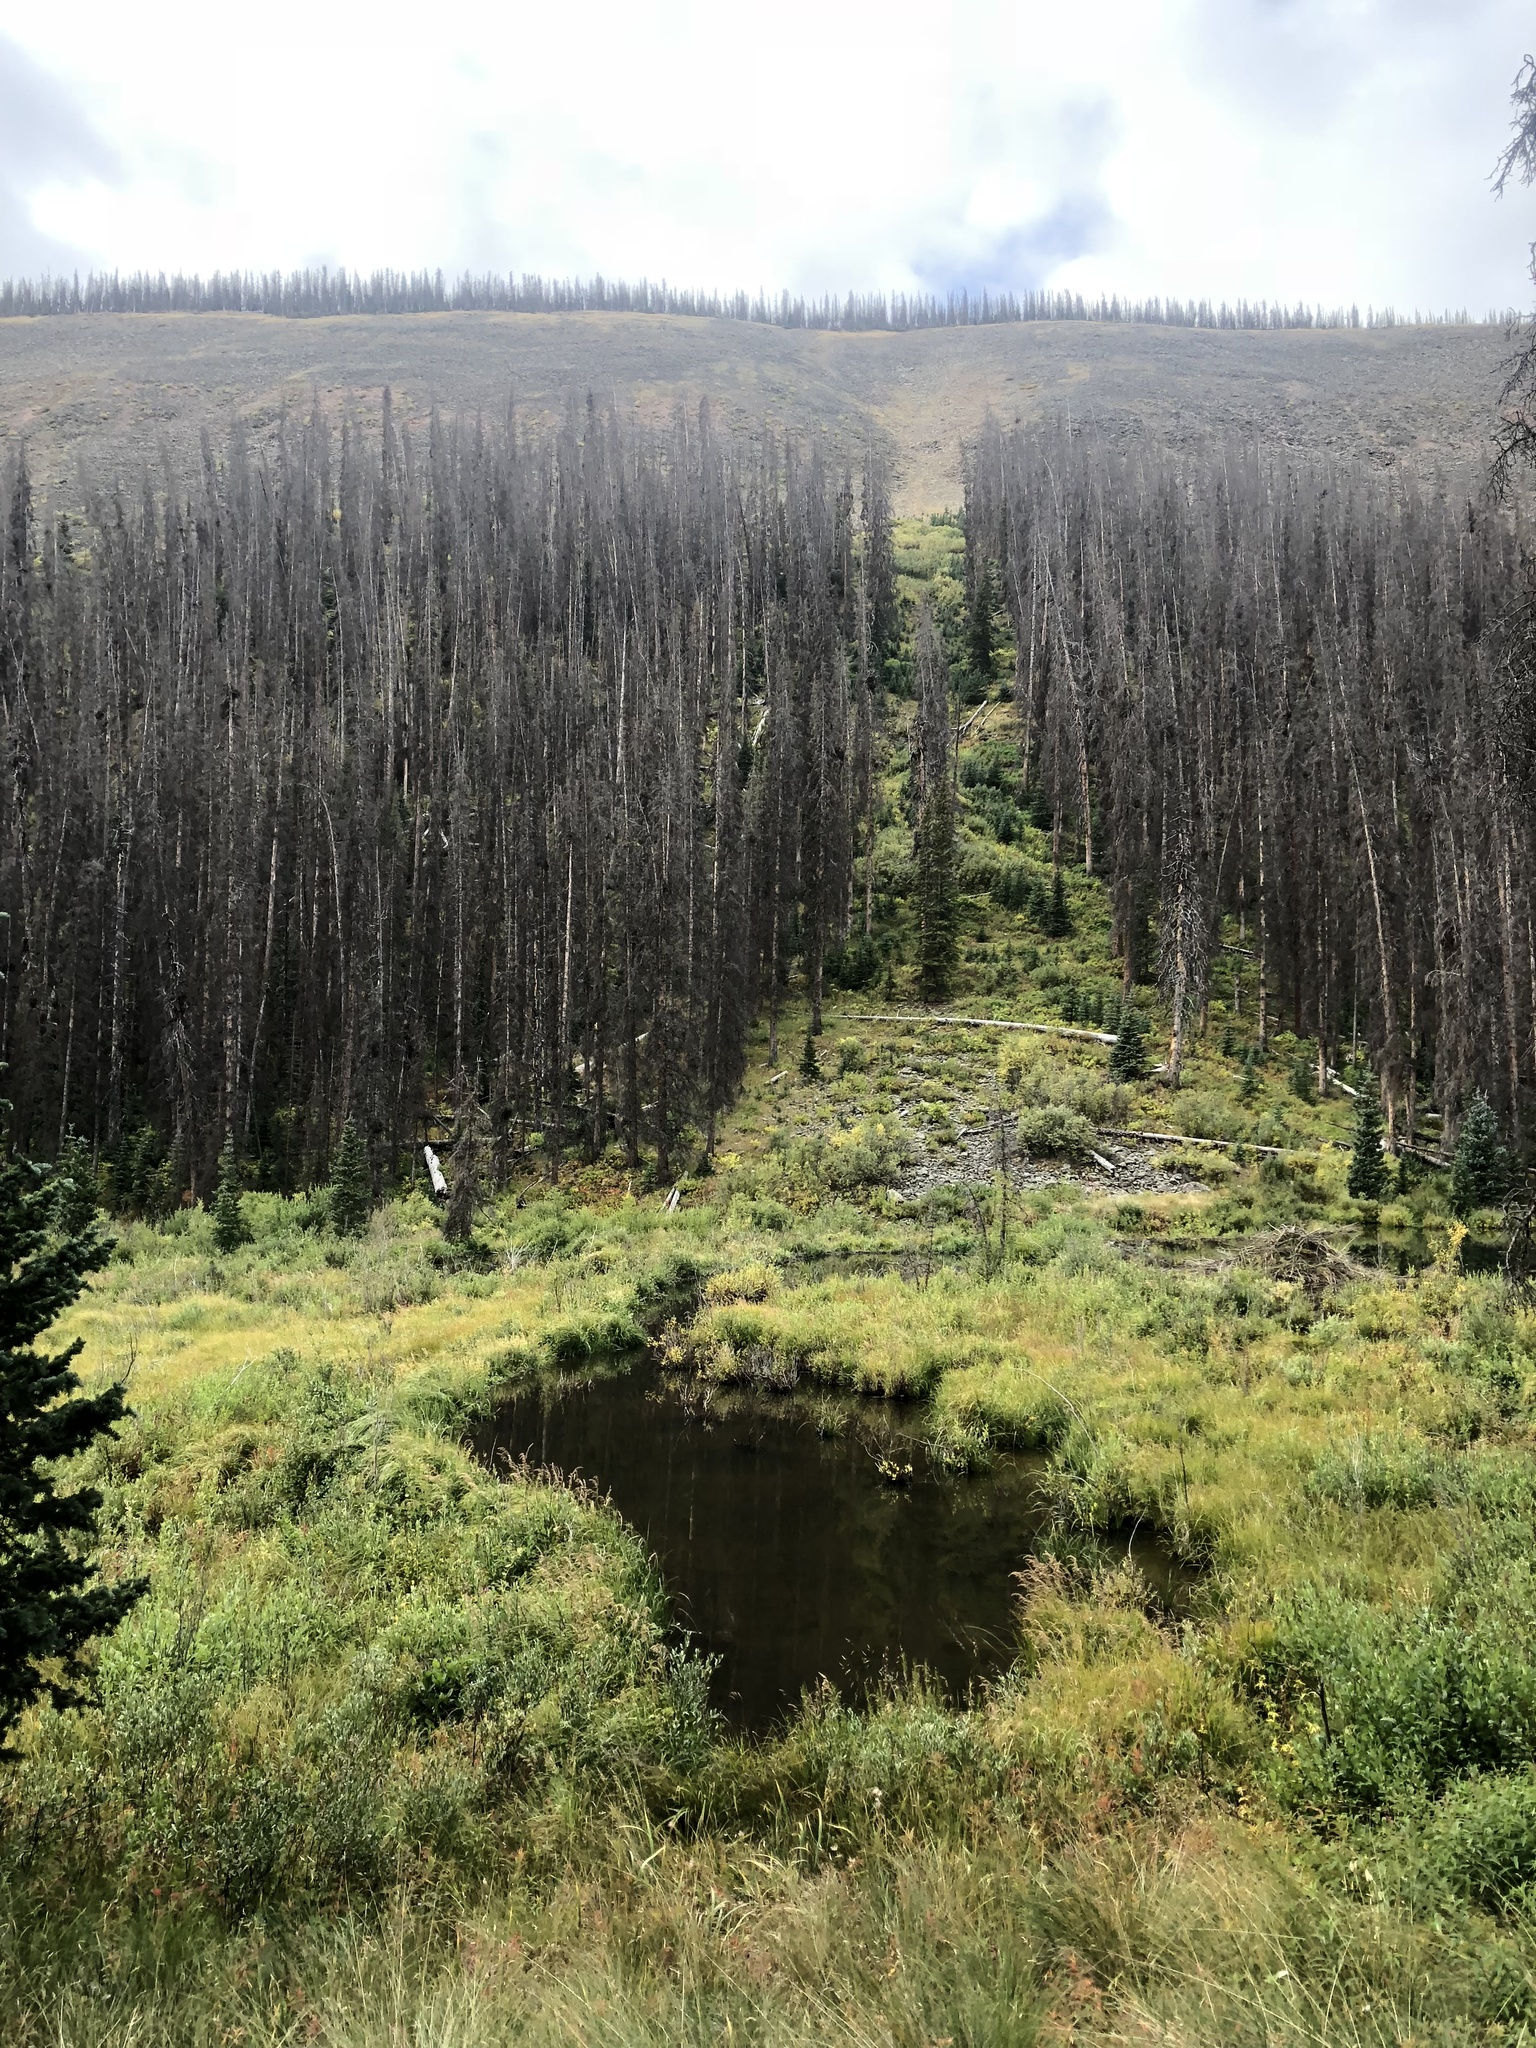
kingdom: Animalia
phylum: Chordata
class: Mammalia
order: Rodentia
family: Castoridae
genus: Castor
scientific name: Castor canadensis
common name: American beaver
